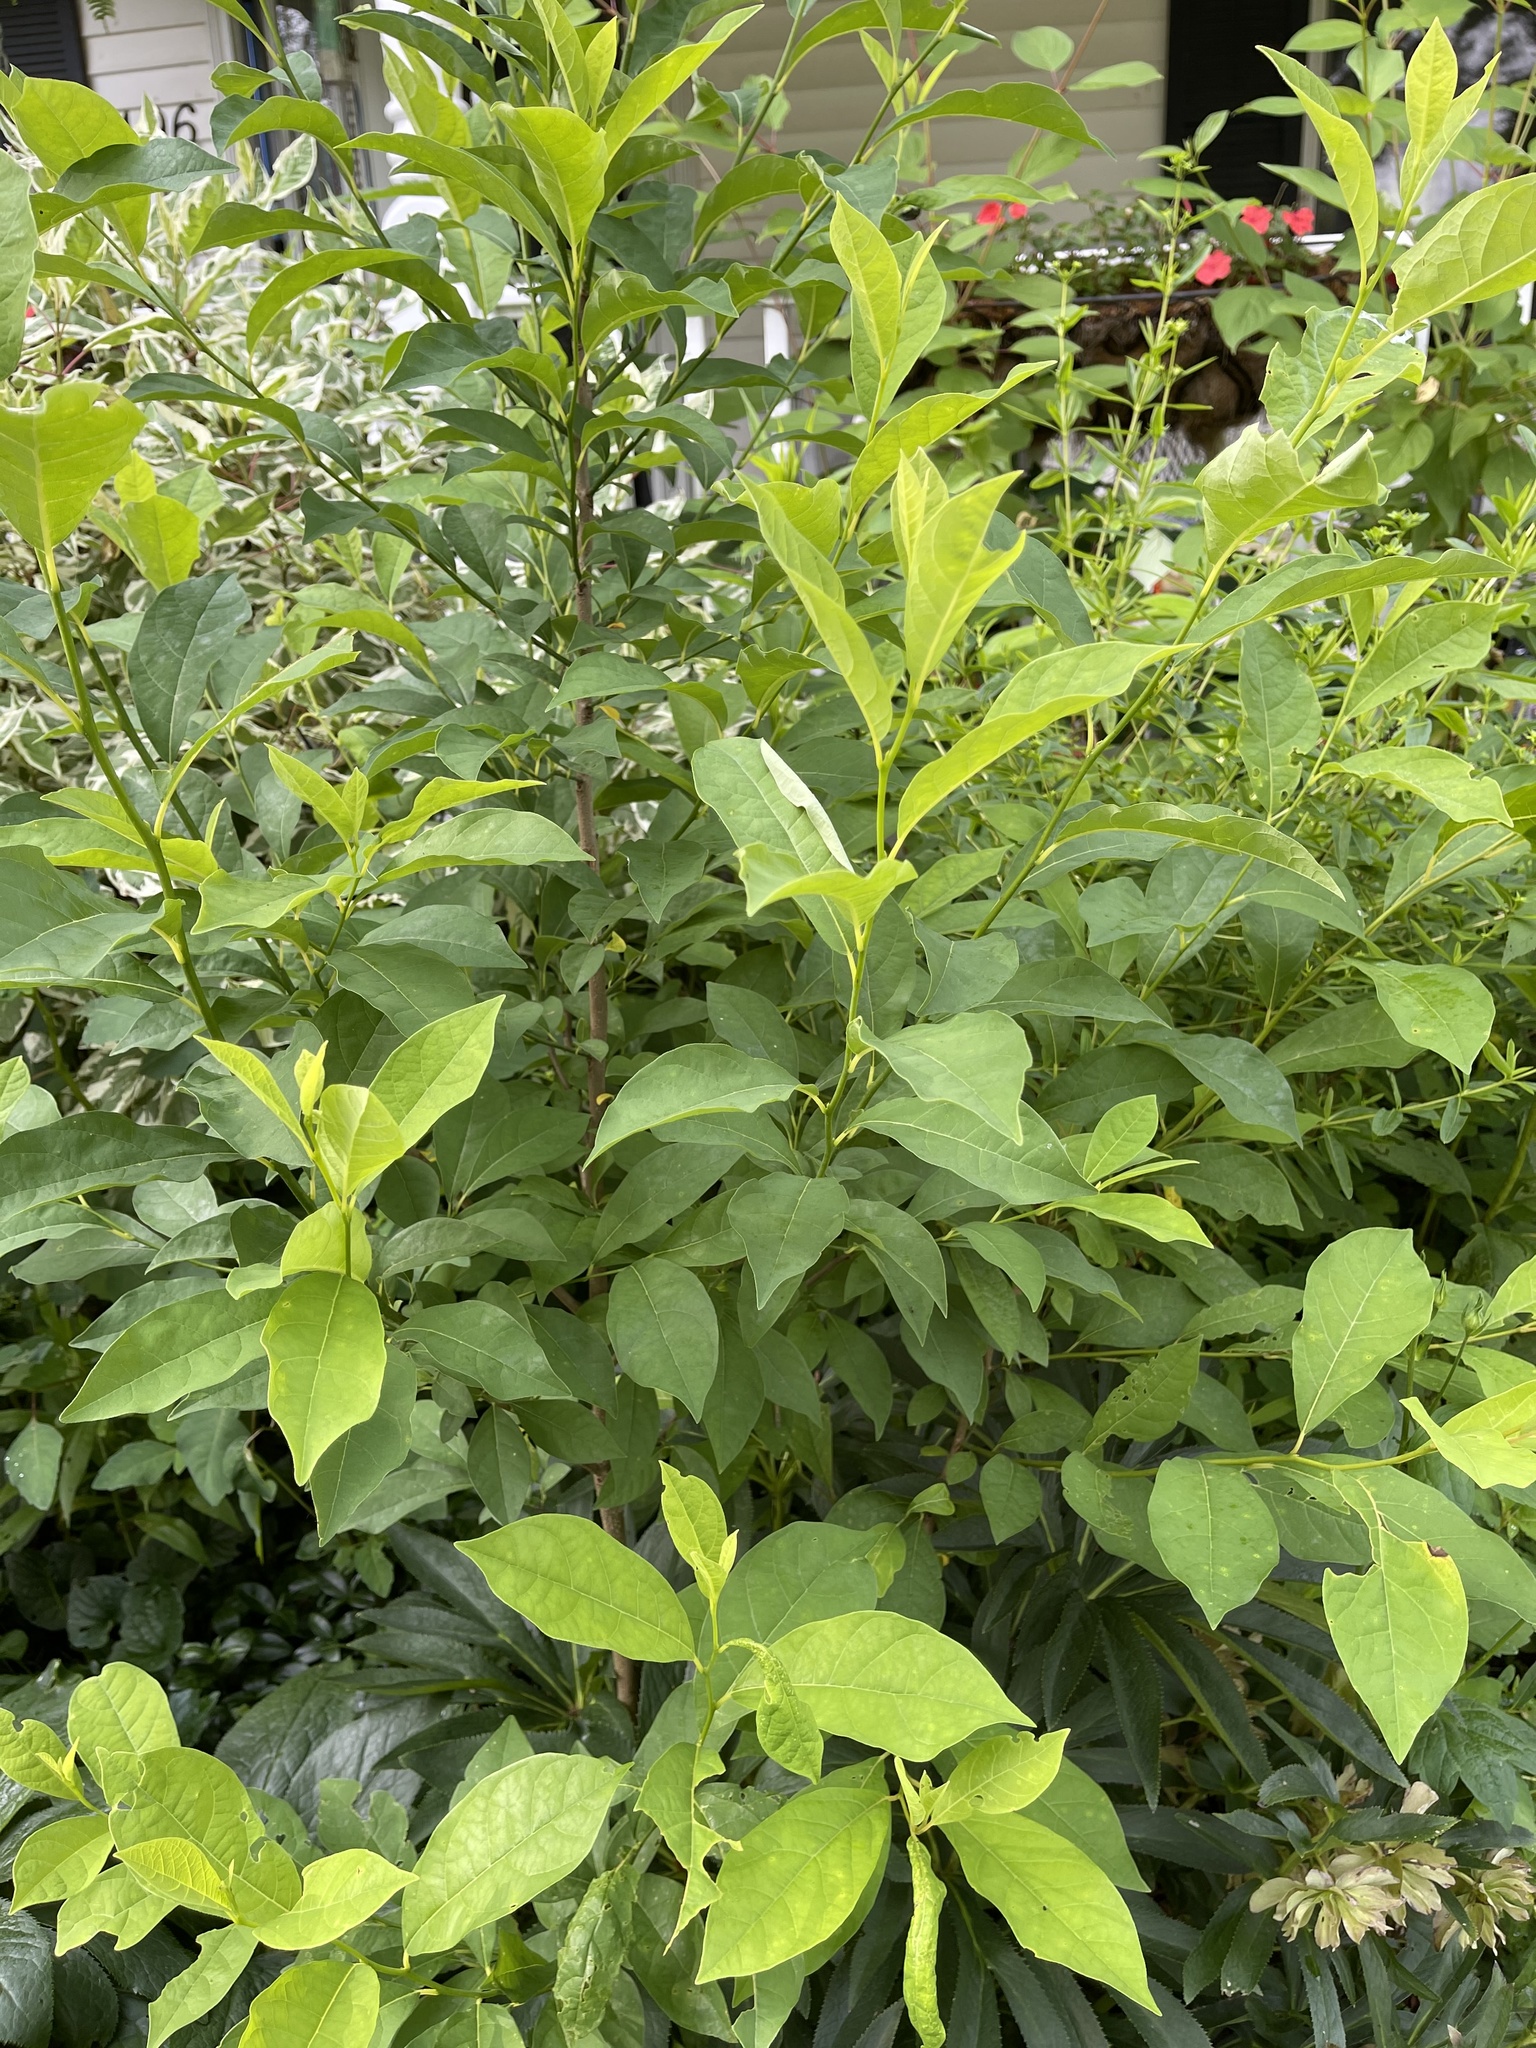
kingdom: Animalia
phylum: Arthropoda
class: Insecta
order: Lepidoptera
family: Papilionidae
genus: Papilio
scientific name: Papilio troilus
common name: Spicebush swallowtail
